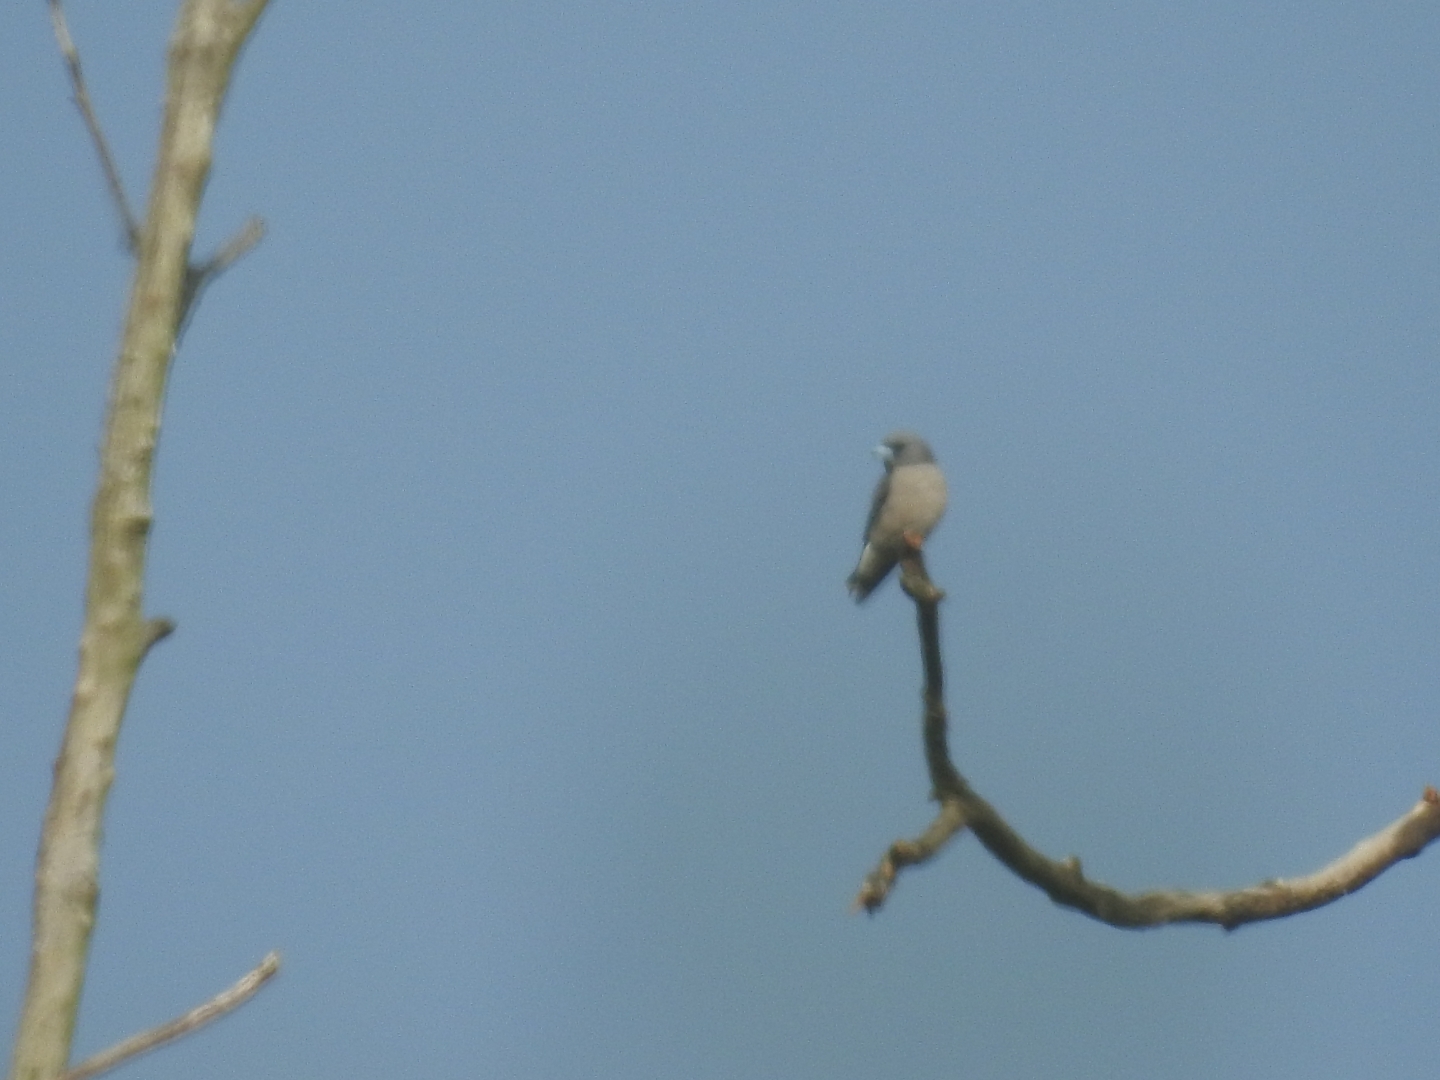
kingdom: Animalia
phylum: Chordata
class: Aves
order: Passeriformes
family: Artamidae
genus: Artamus
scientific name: Artamus fuscus
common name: Ashy woodswallow
